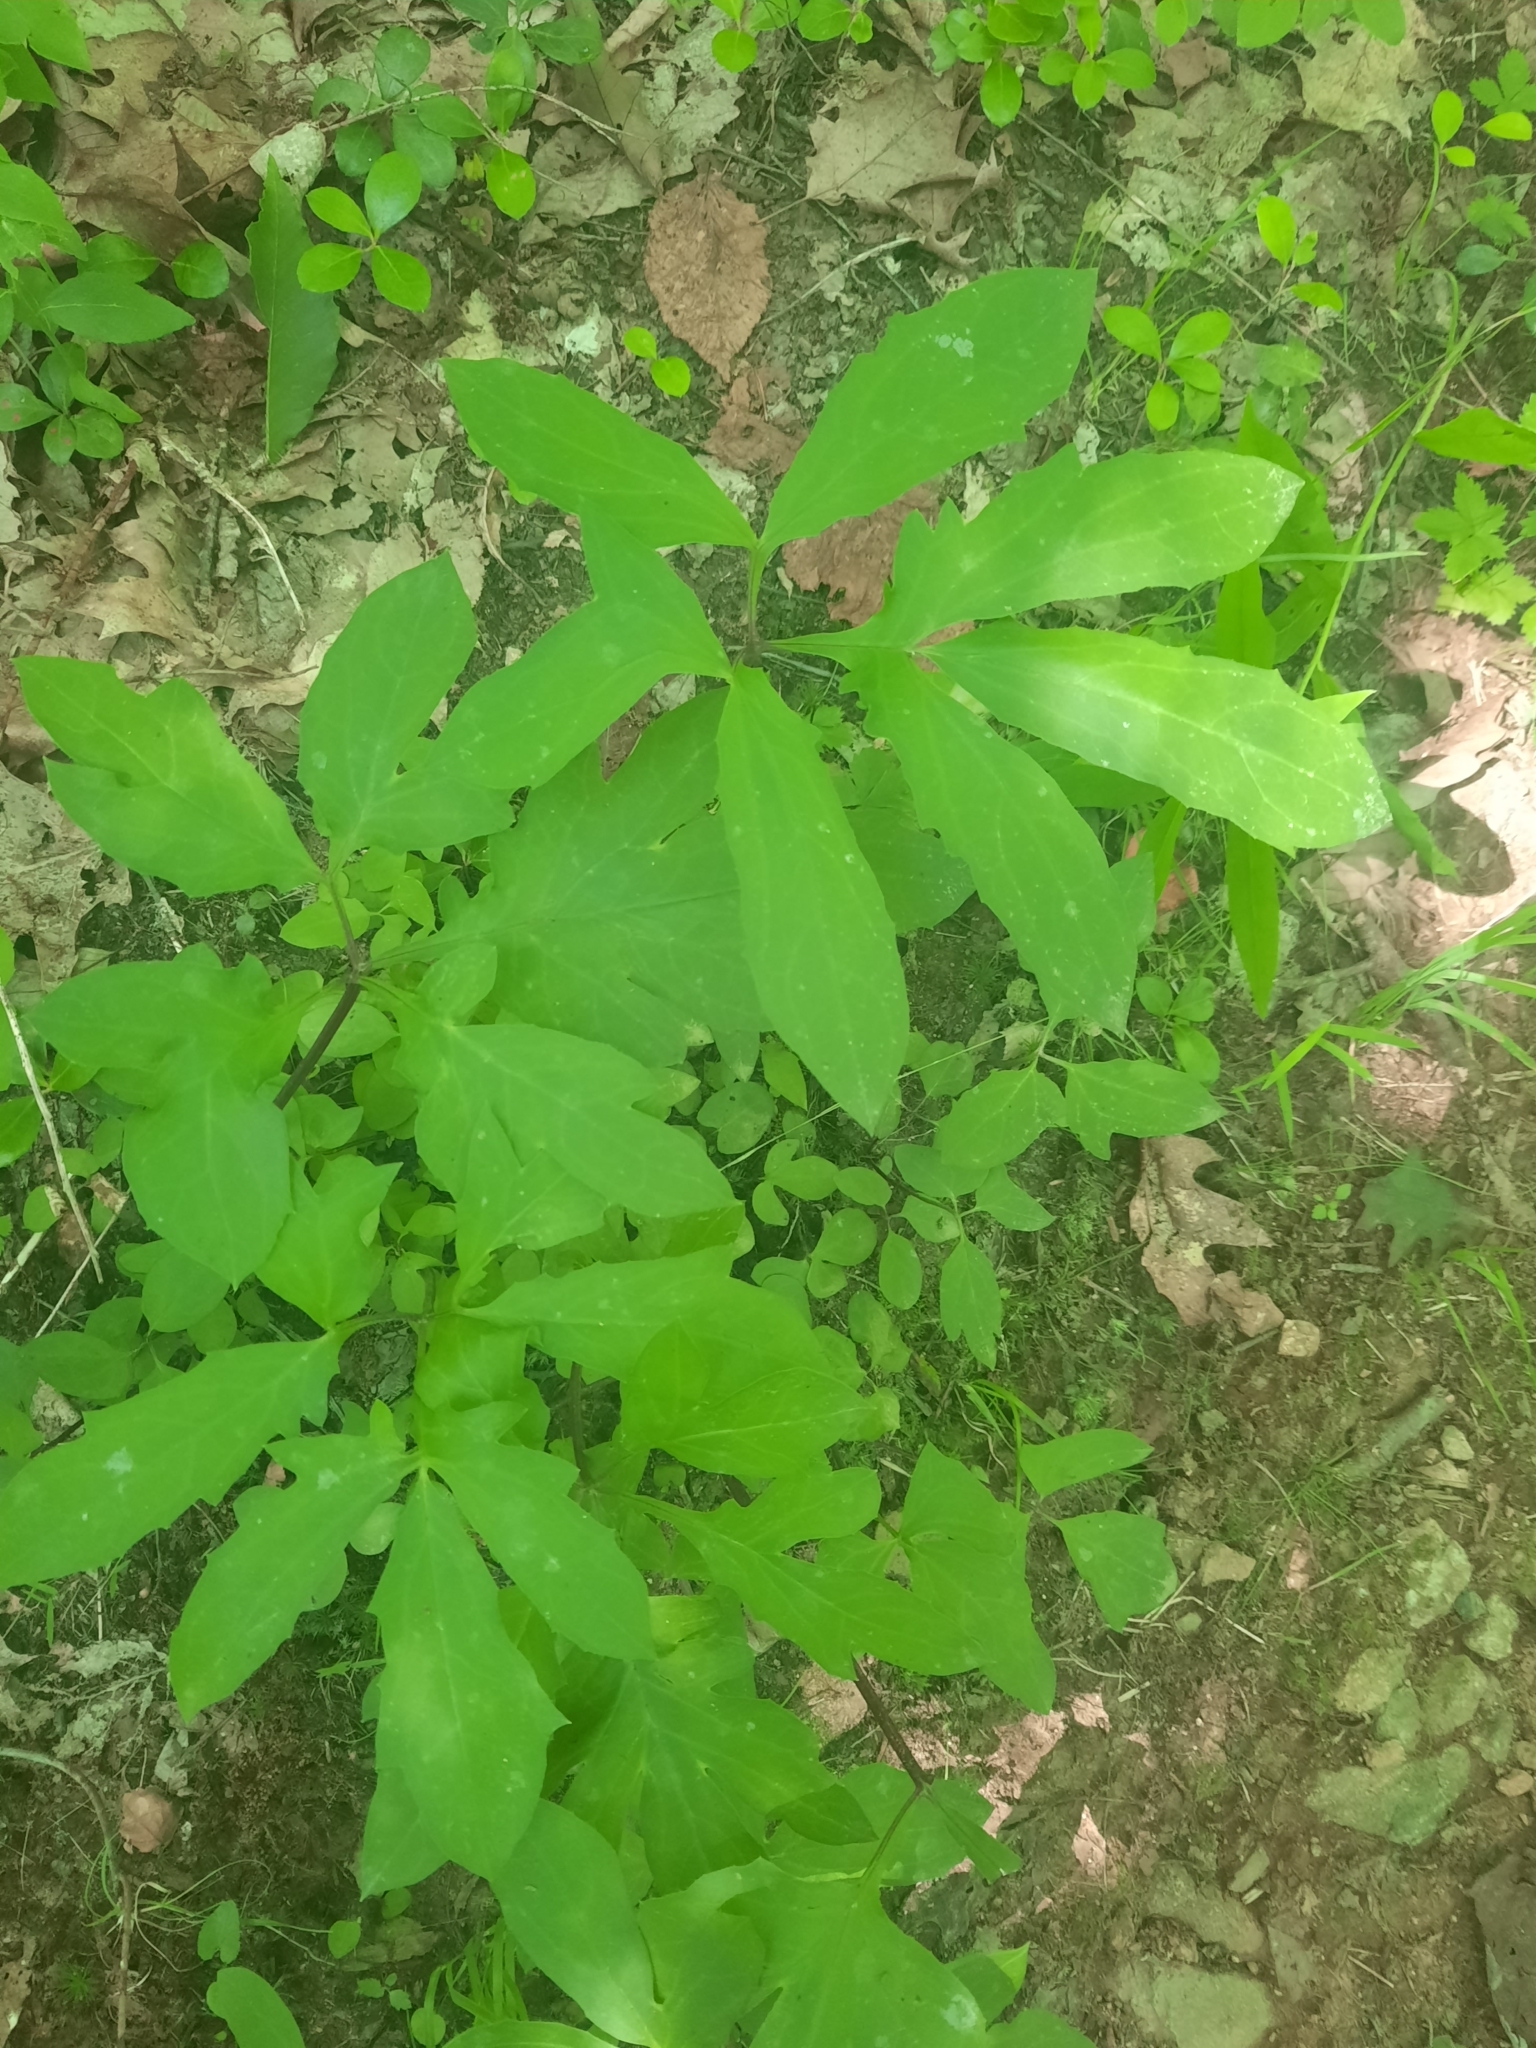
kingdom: Plantae
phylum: Tracheophyta
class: Magnoliopsida
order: Asterales
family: Asteraceae
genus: Nabalus
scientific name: Nabalus trifoliolatus
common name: Gall-of-the-earth
